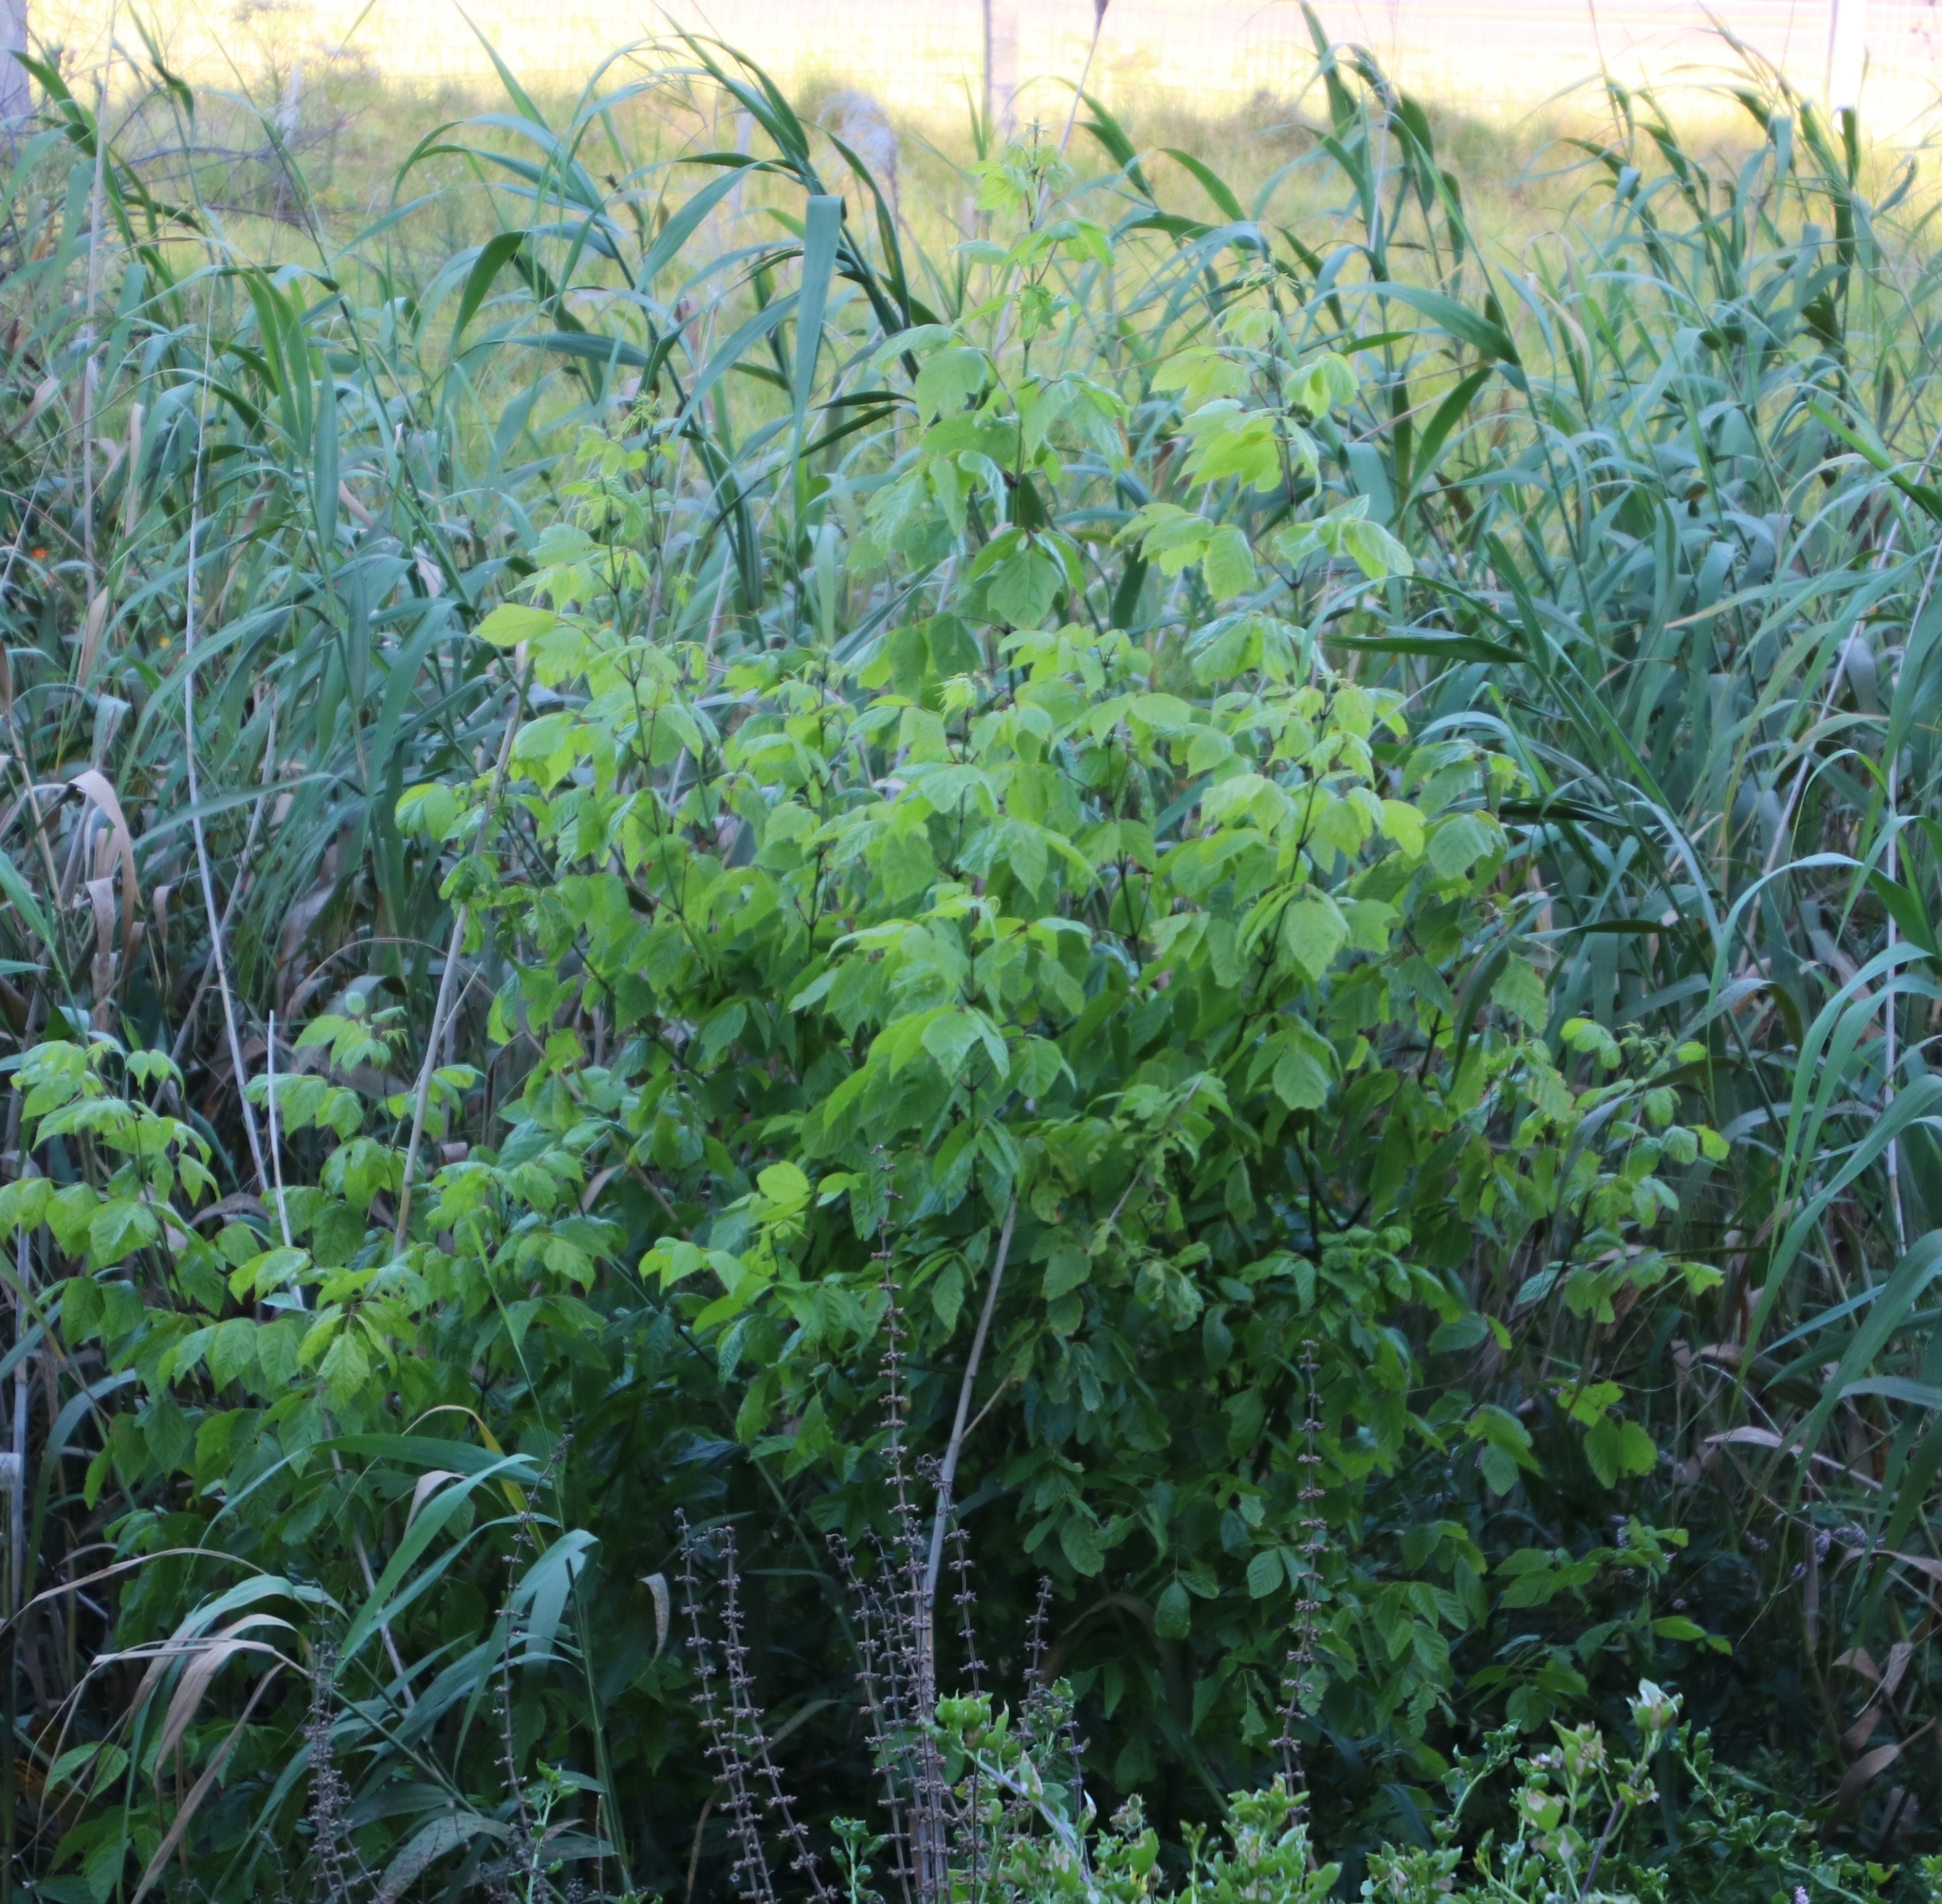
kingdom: Plantae
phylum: Tracheophyta
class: Magnoliopsida
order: Sapindales
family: Sapindaceae
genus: Acer
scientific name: Acer negundo
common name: Ashleaf maple
